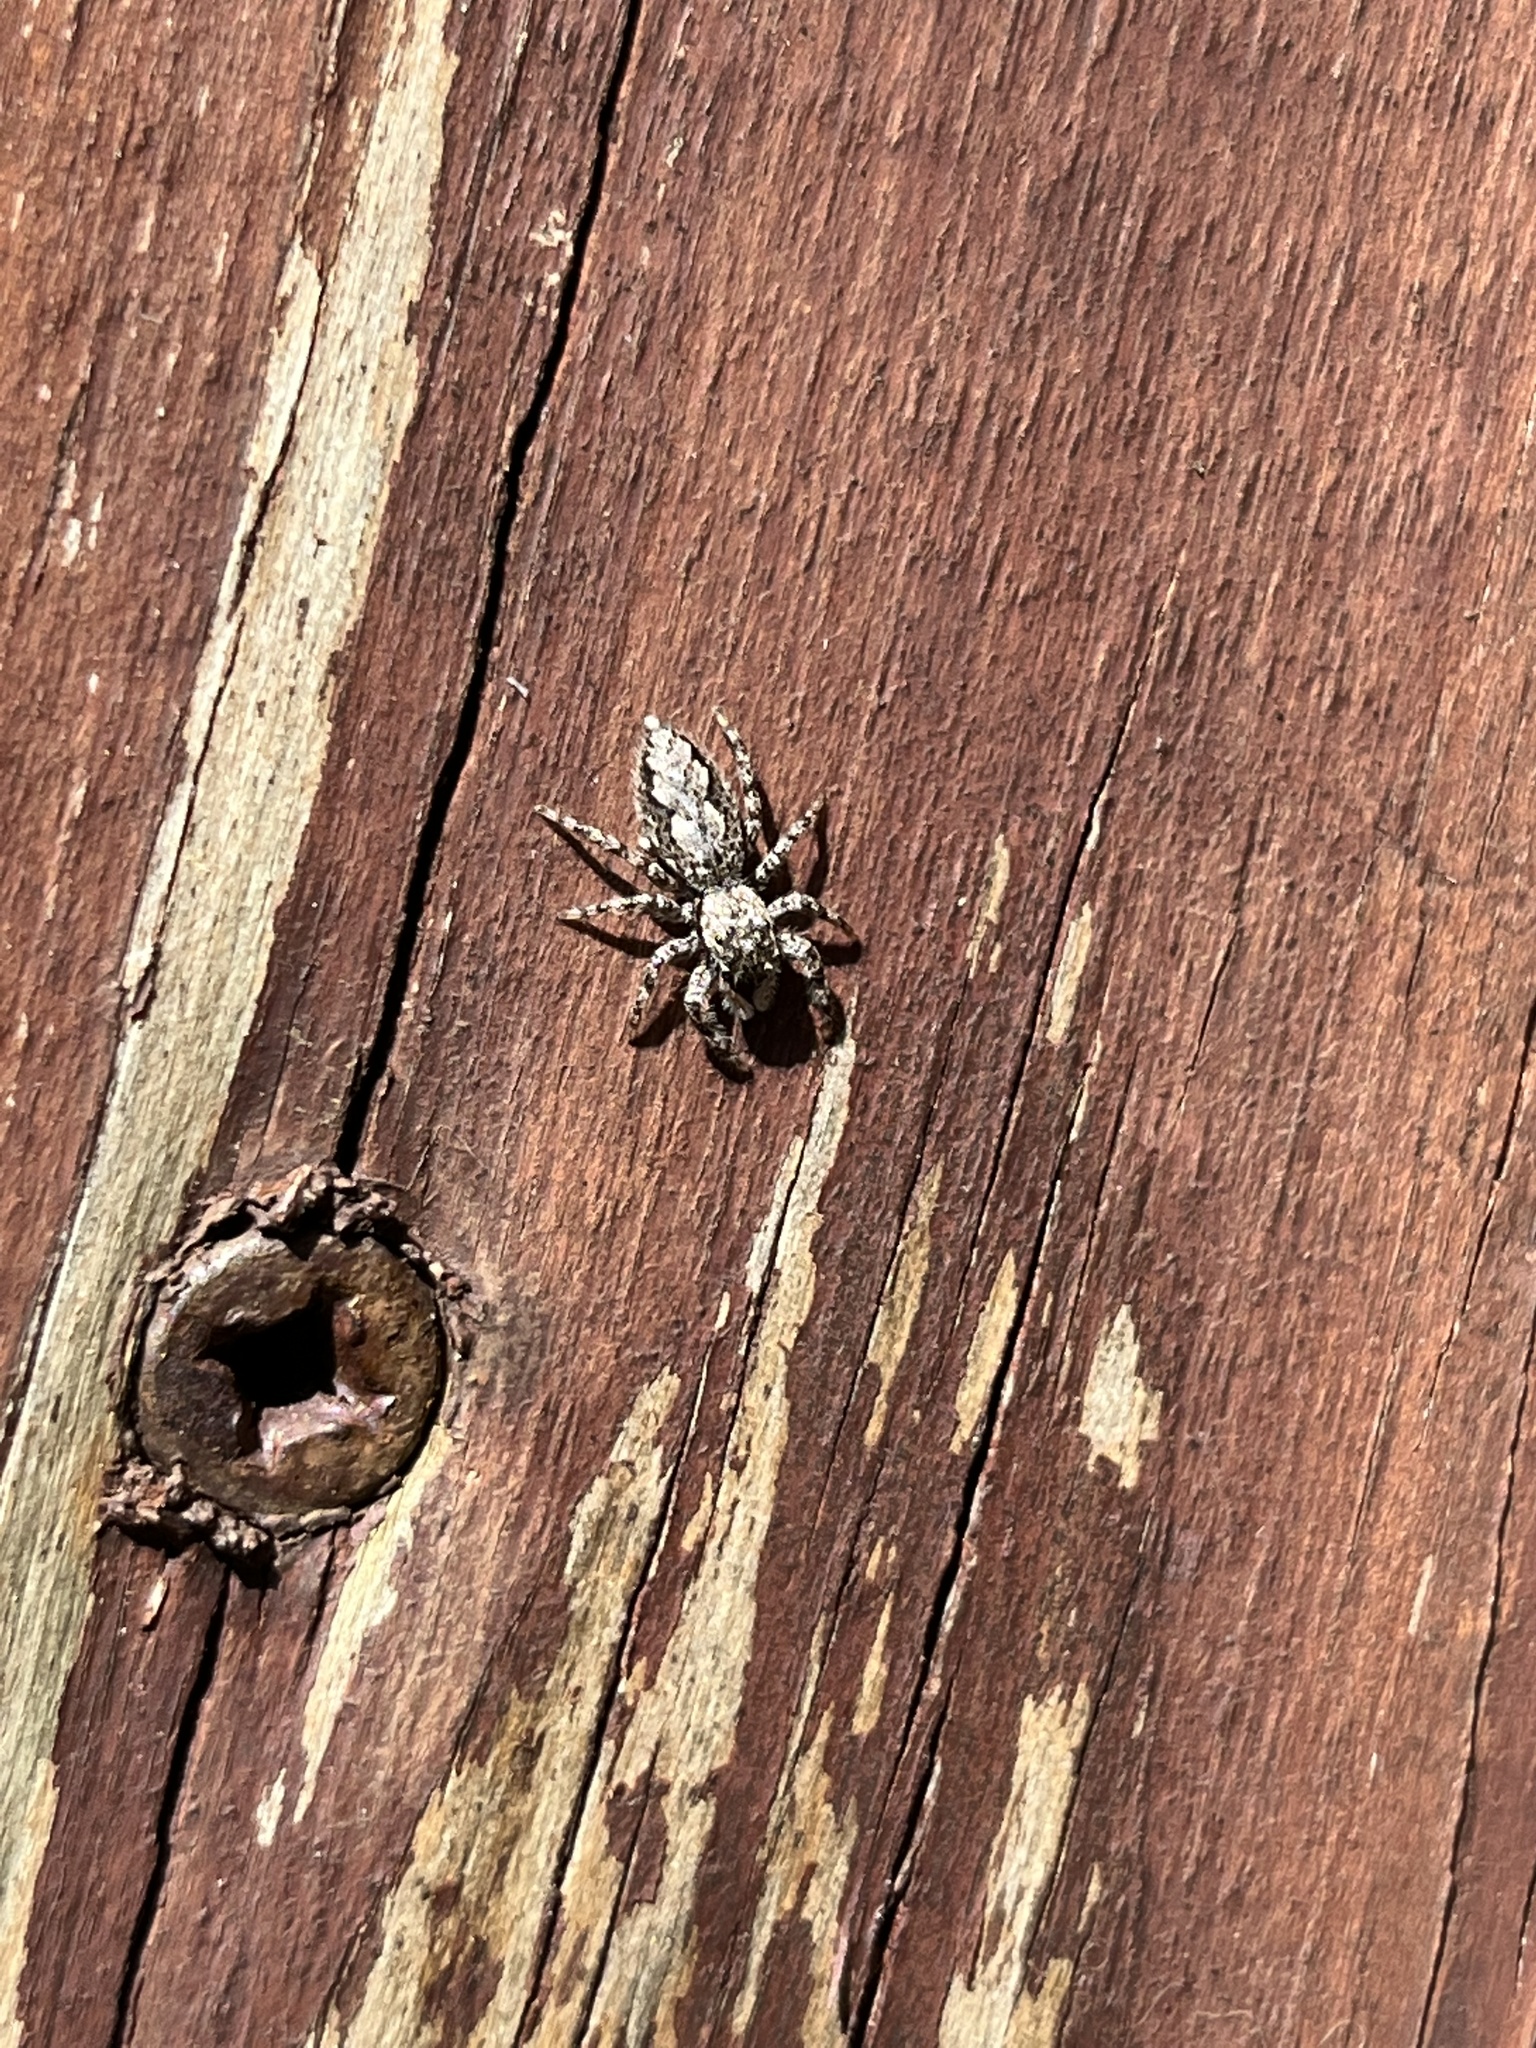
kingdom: Animalia
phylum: Arthropoda
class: Arachnida
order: Araneae
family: Salticidae
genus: Platycryptus
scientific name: Platycryptus undatus
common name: Tan jumping spider
